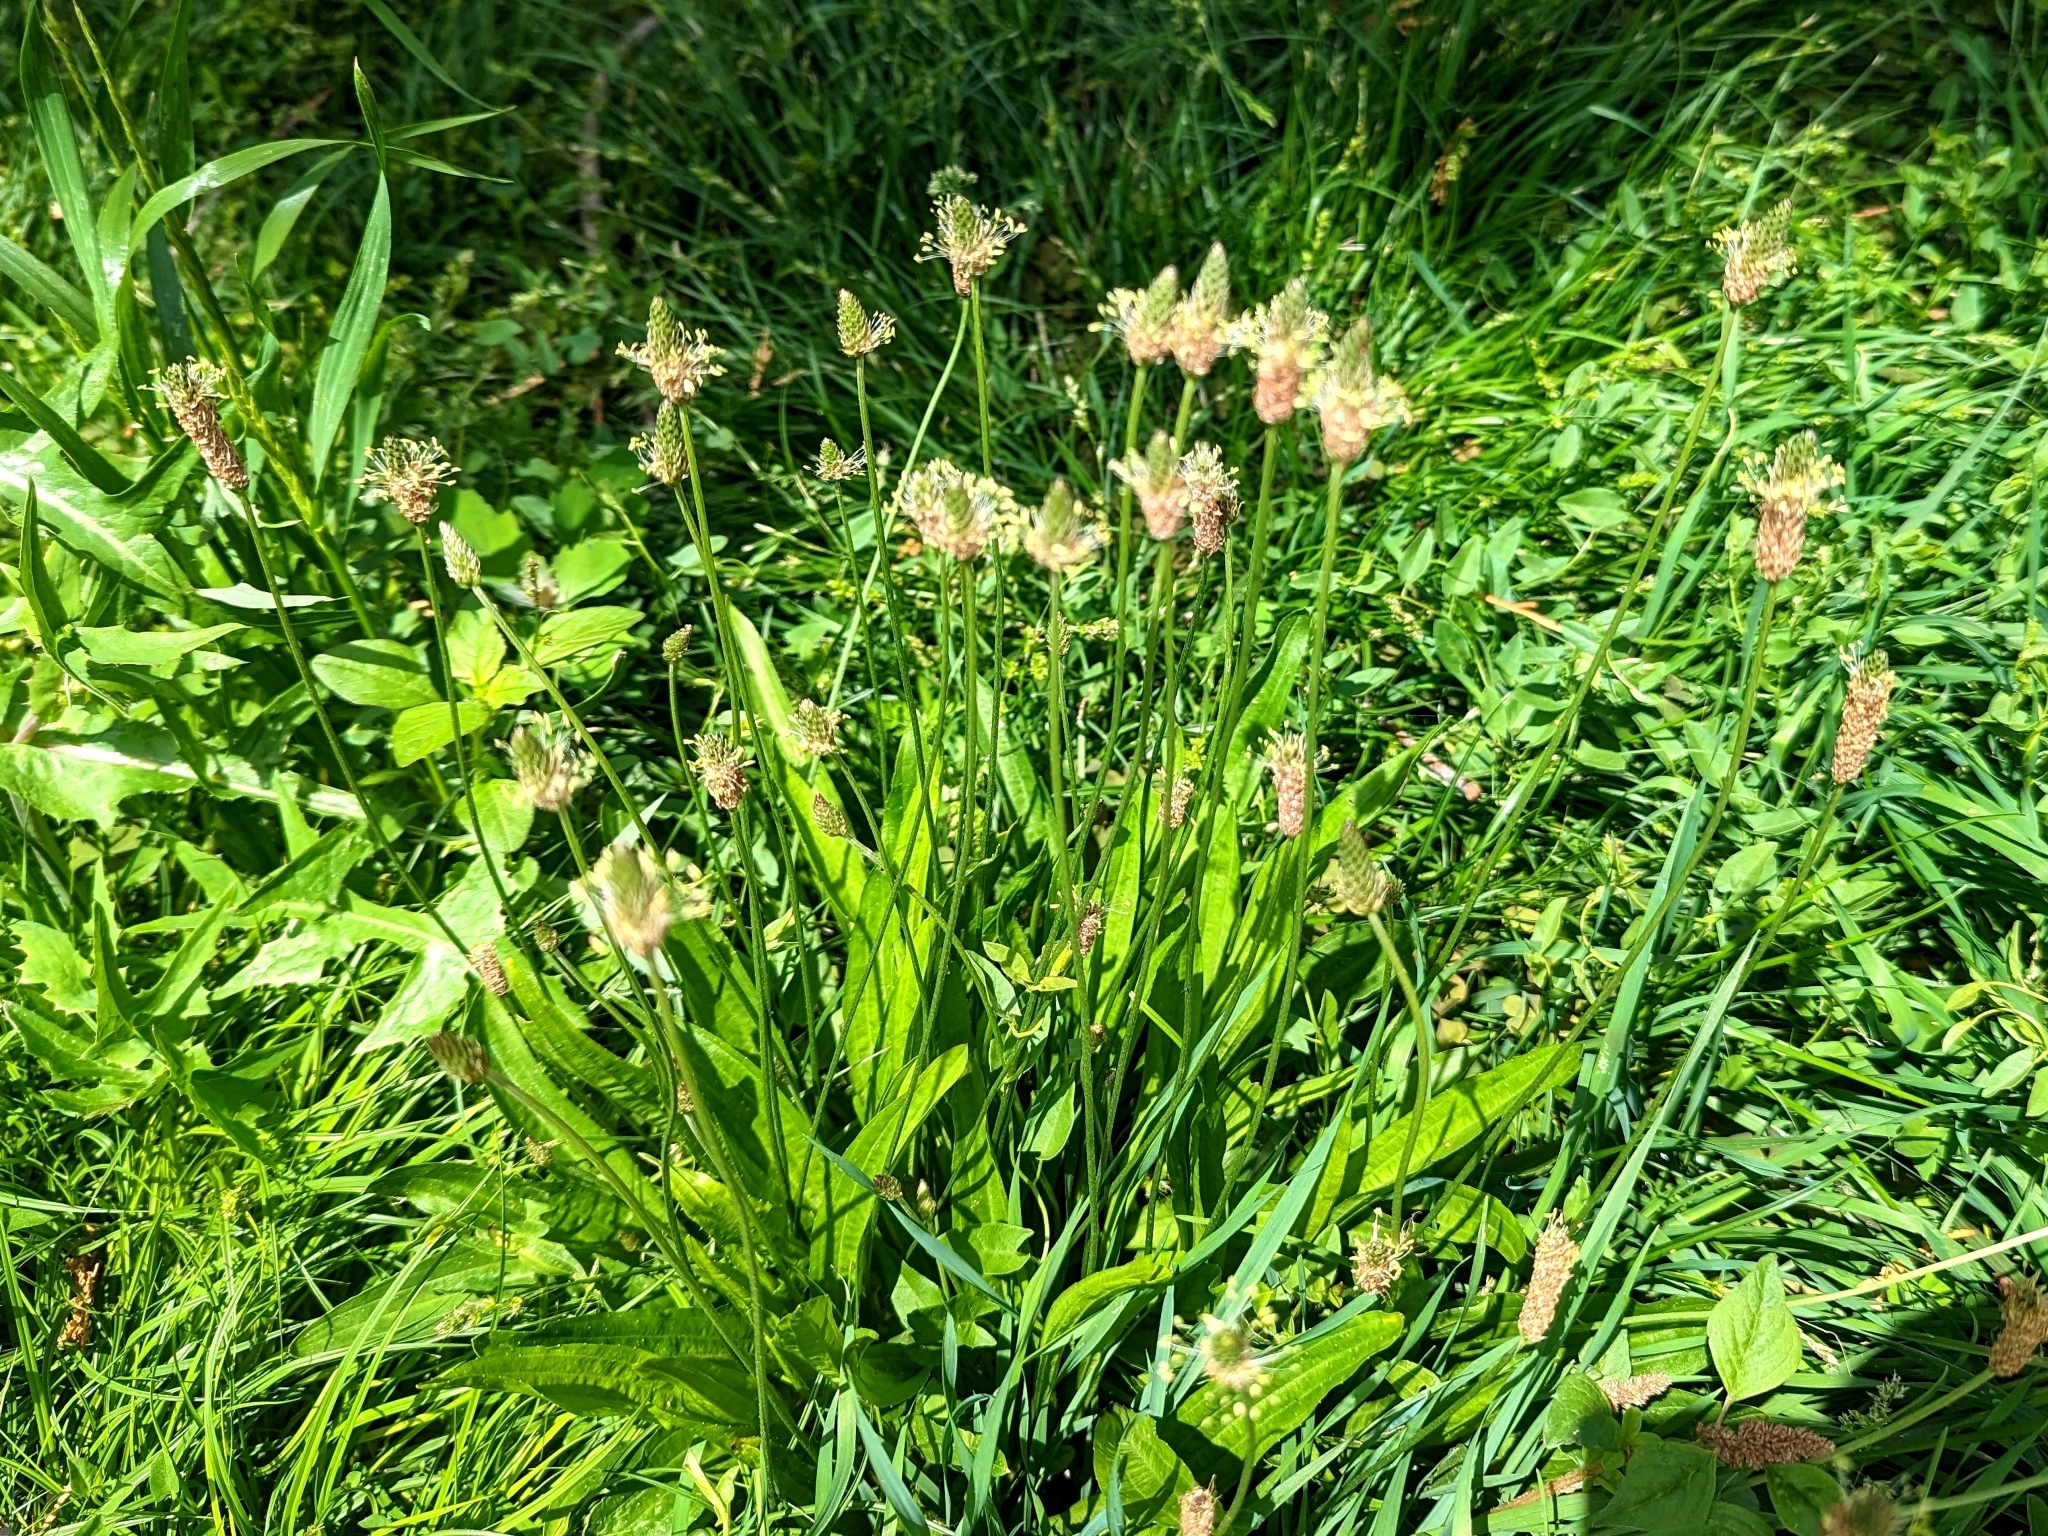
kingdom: Plantae
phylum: Tracheophyta
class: Magnoliopsida
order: Lamiales
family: Plantaginaceae
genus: Plantago
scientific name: Plantago lanceolata
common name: Ribwort plantain
